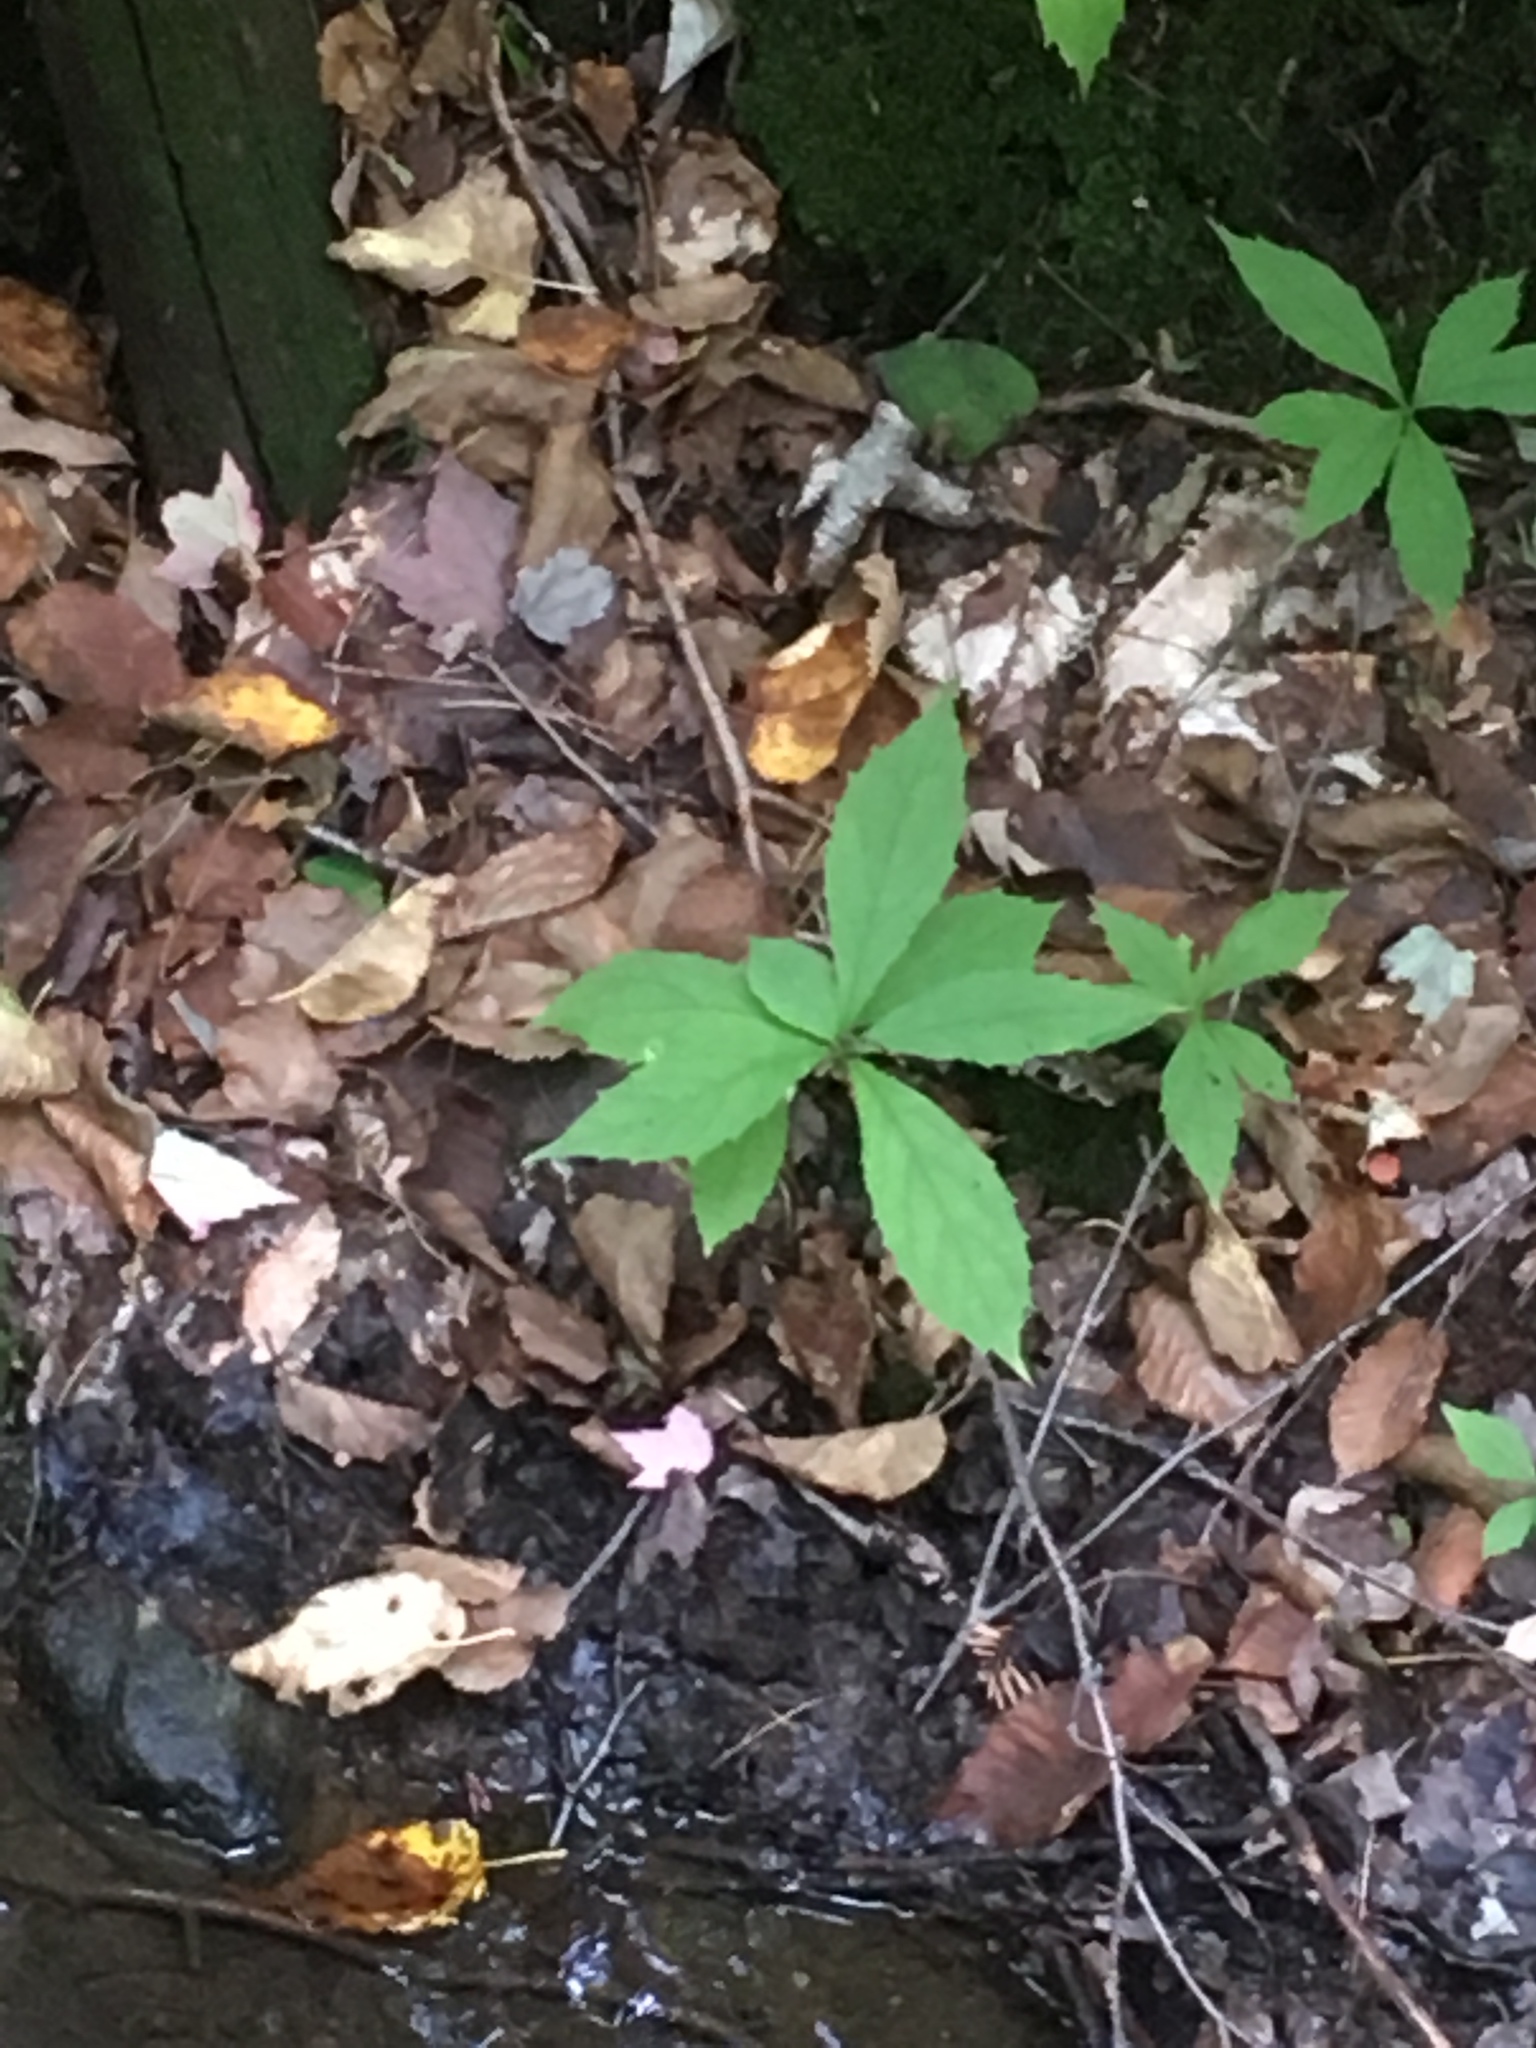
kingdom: Plantae
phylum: Tracheophyta
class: Magnoliopsida
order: Asterales
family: Asteraceae
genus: Oclemena
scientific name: Oclemena acuminata
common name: Mountain aster
